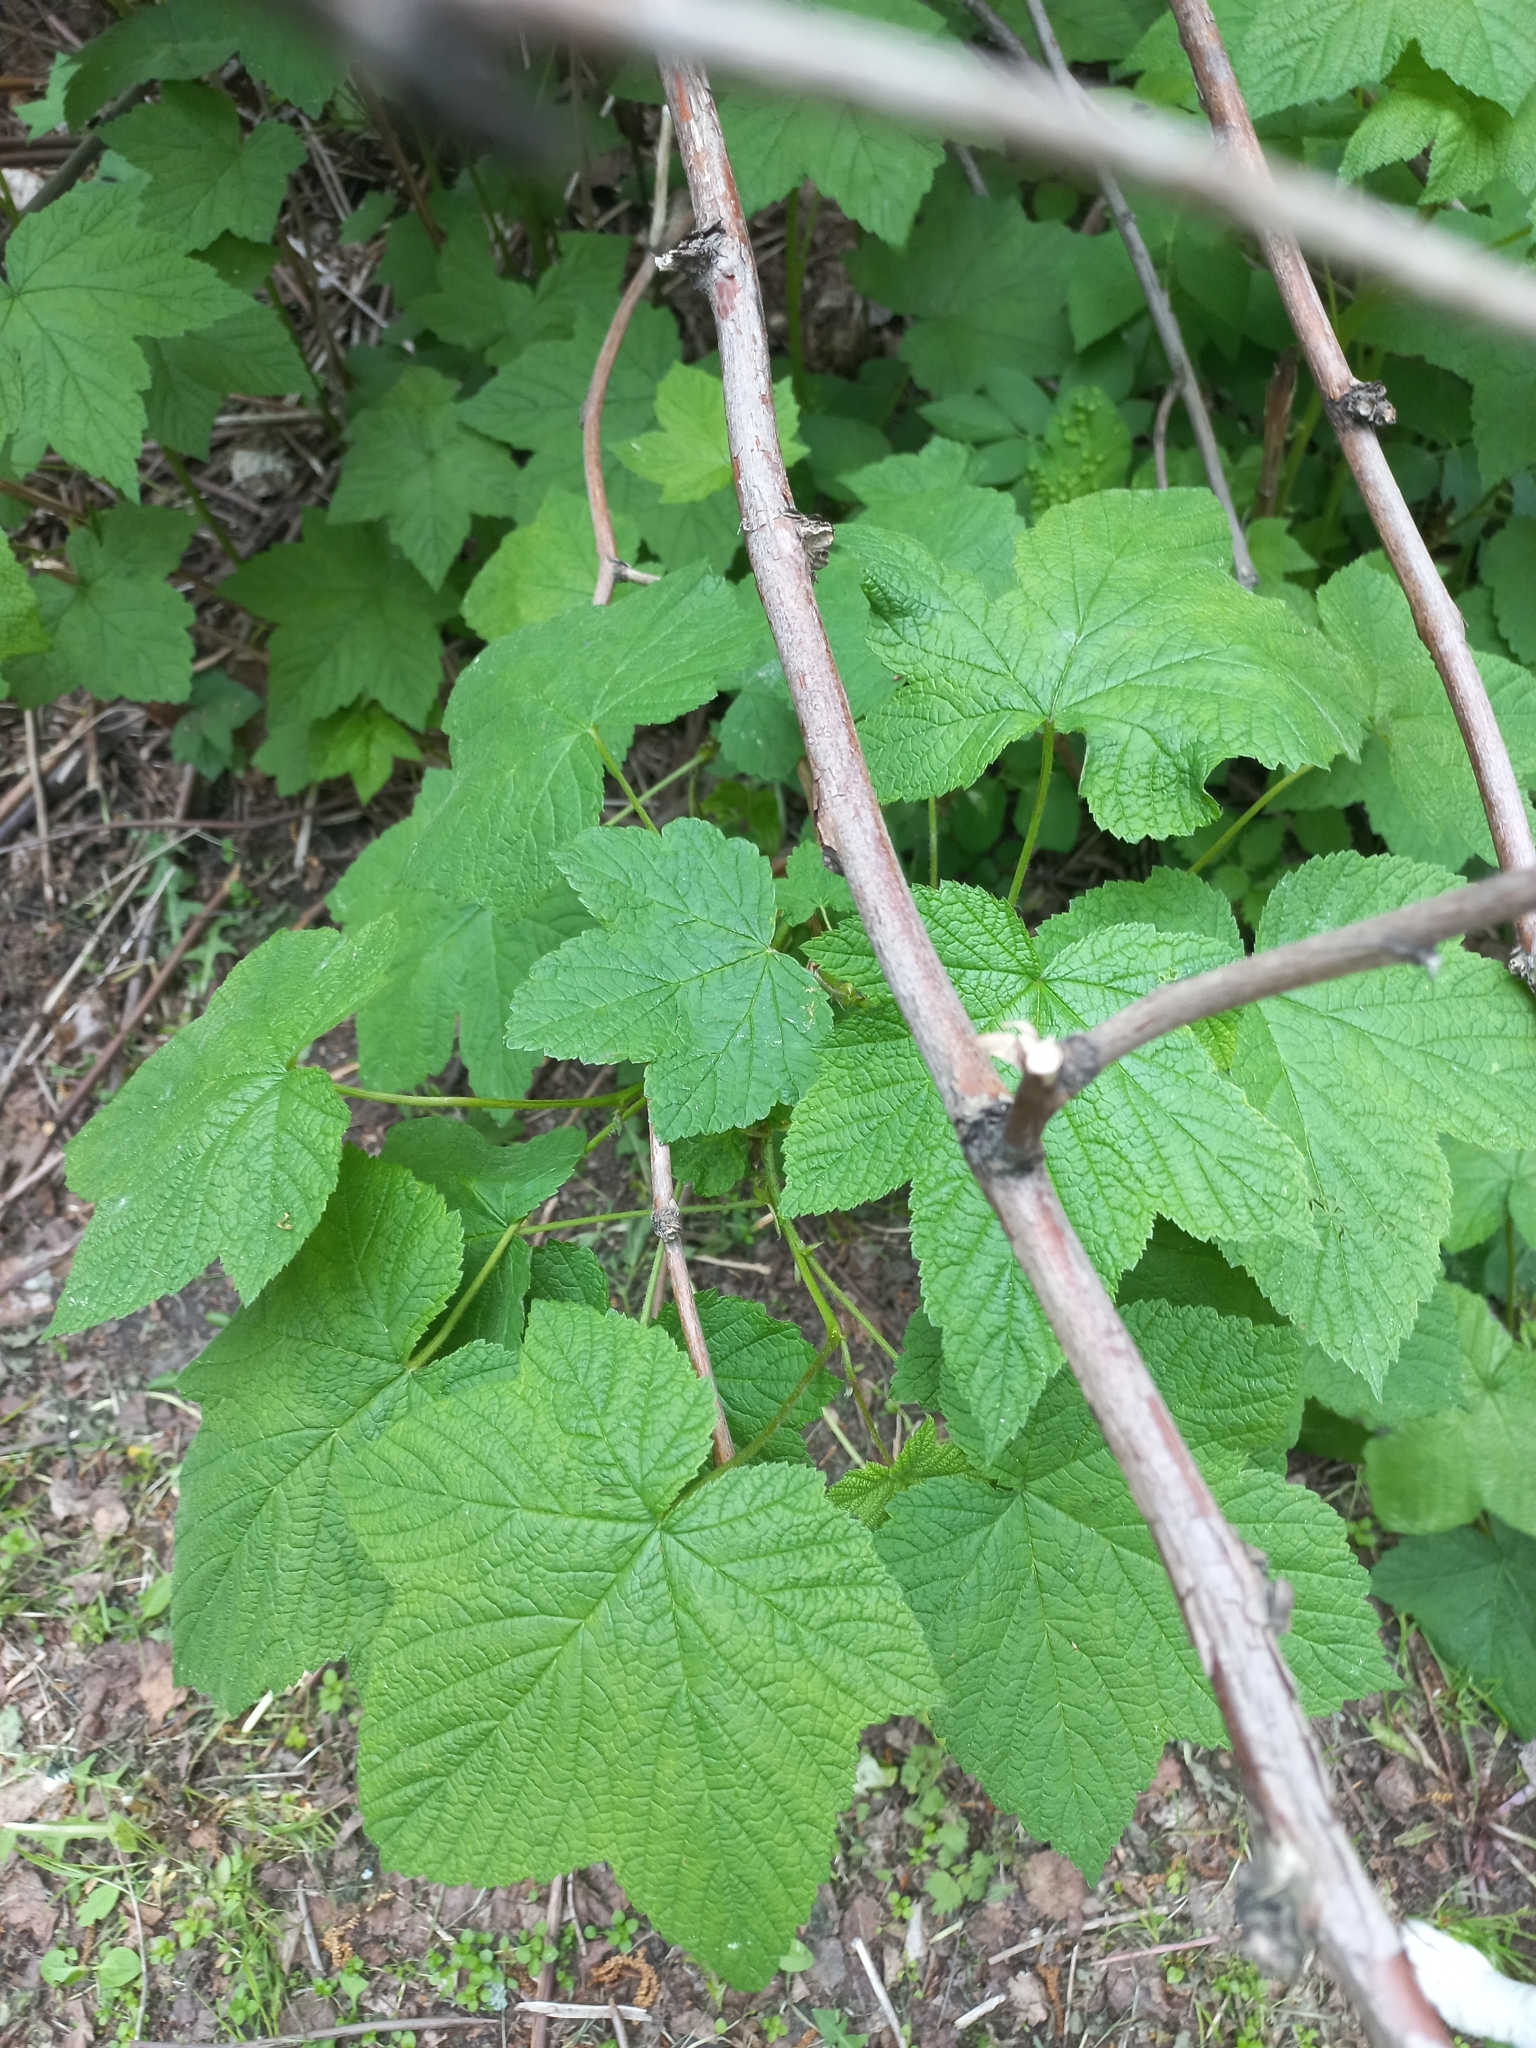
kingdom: Plantae
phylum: Tracheophyta
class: Magnoliopsida
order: Rosales
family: Rosaceae
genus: Rubus
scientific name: Rubus odoratus
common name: Purple-flowered raspberry
